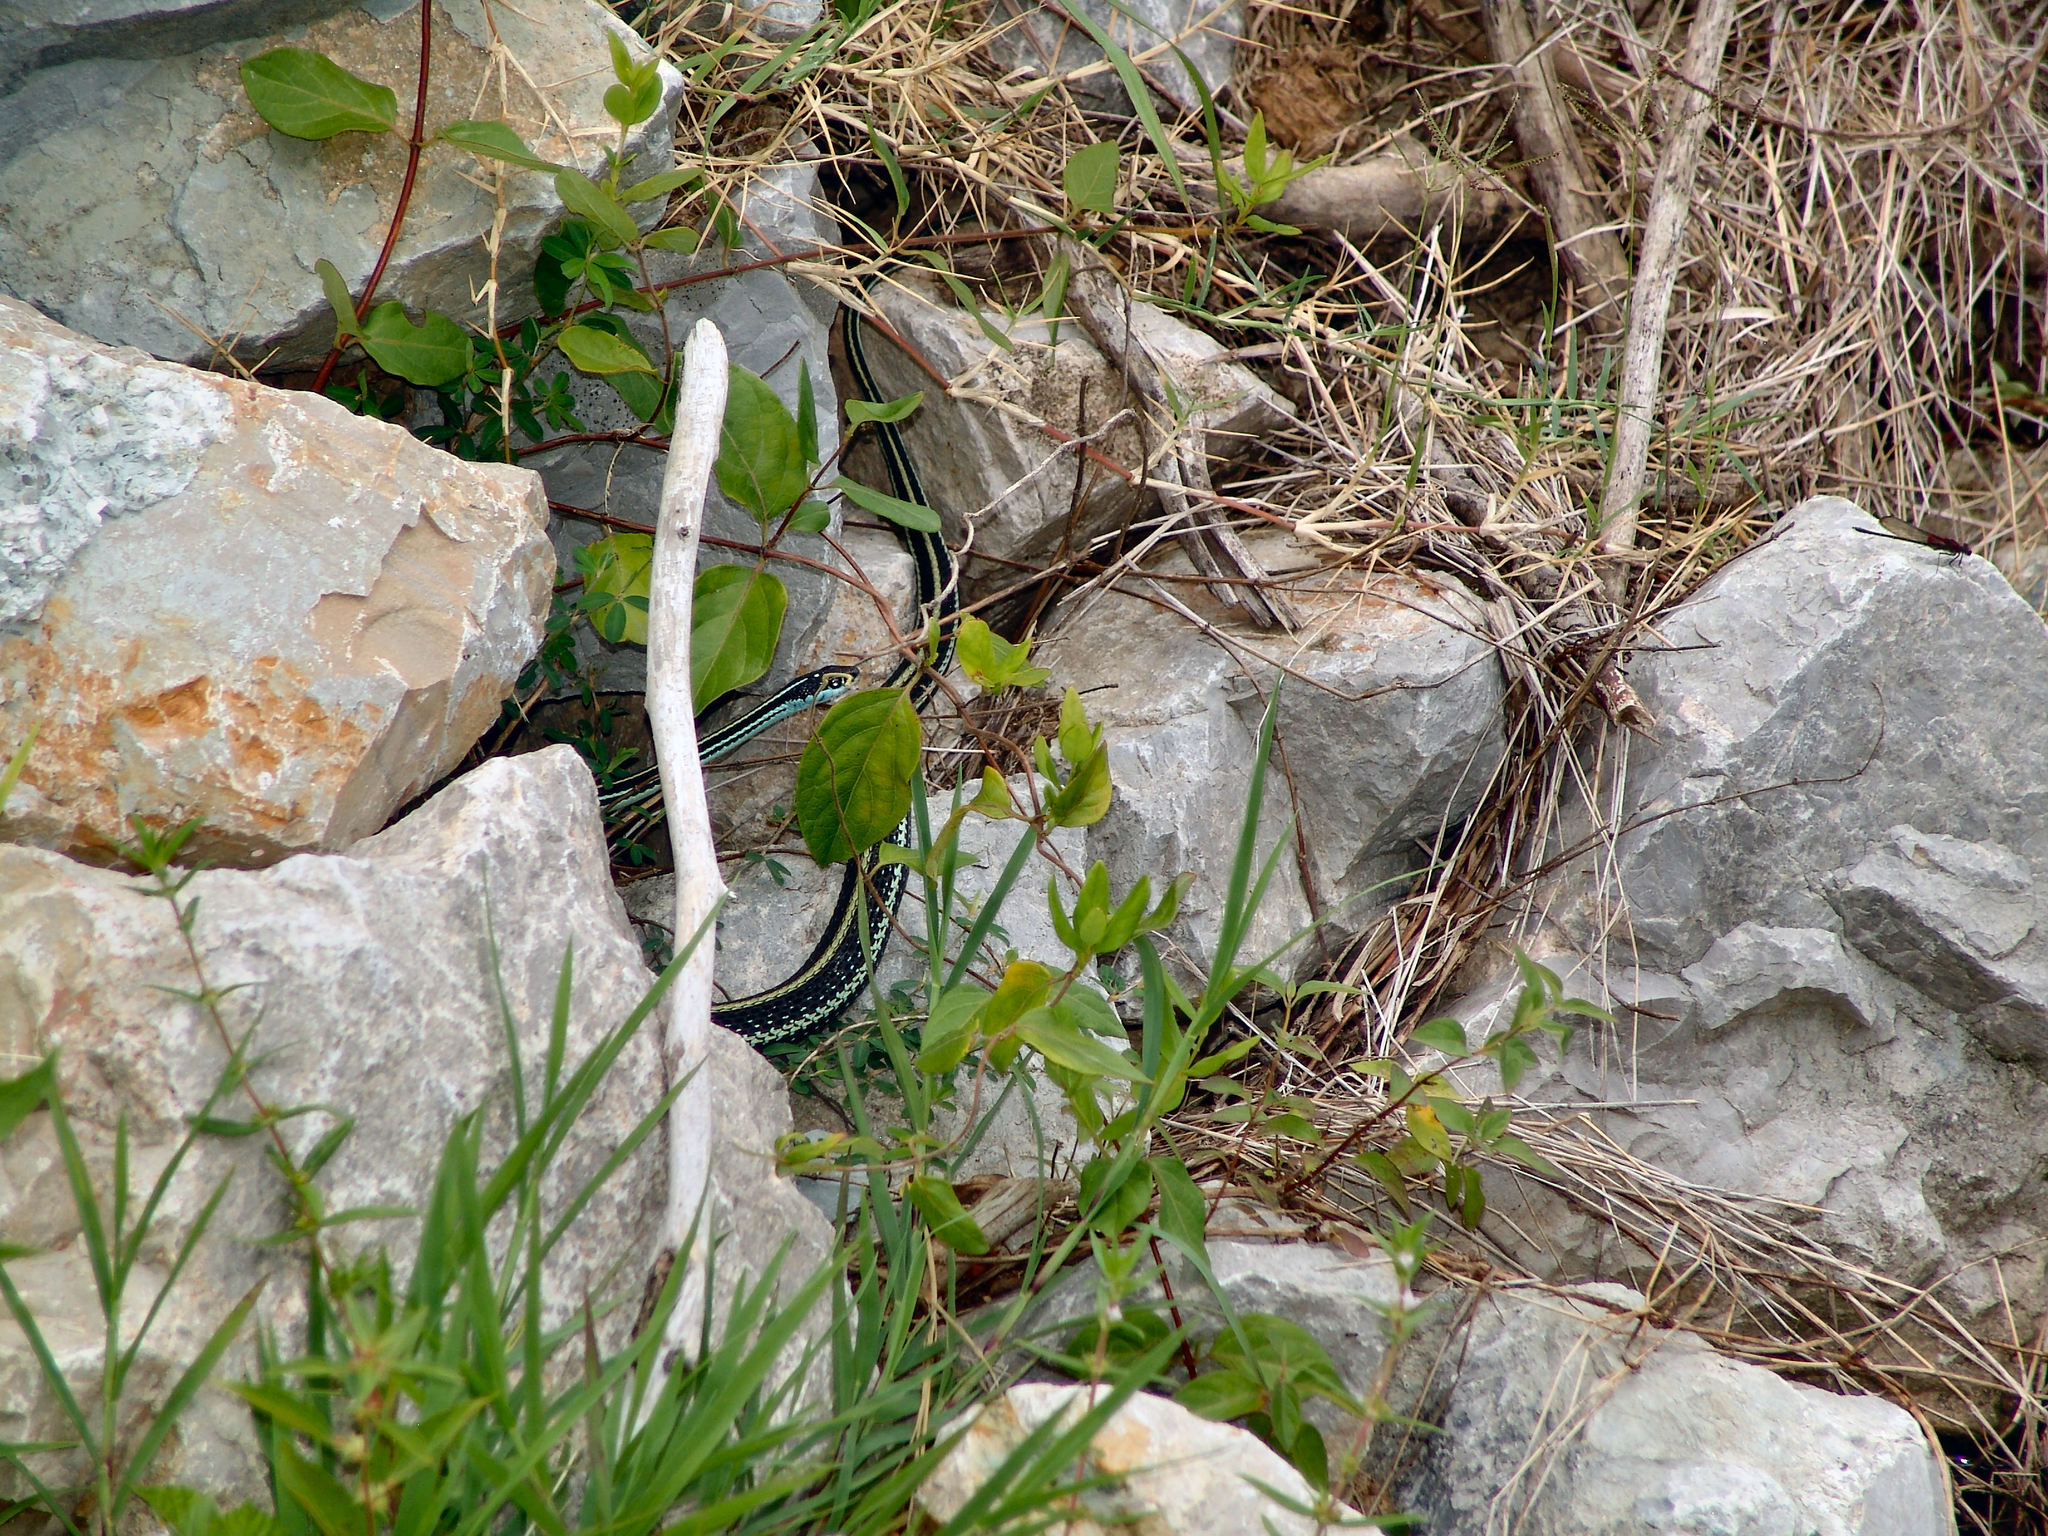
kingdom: Animalia
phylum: Chordata
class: Squamata
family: Colubridae
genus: Thamnophis
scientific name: Thamnophis proximus
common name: Western ribbon snake
